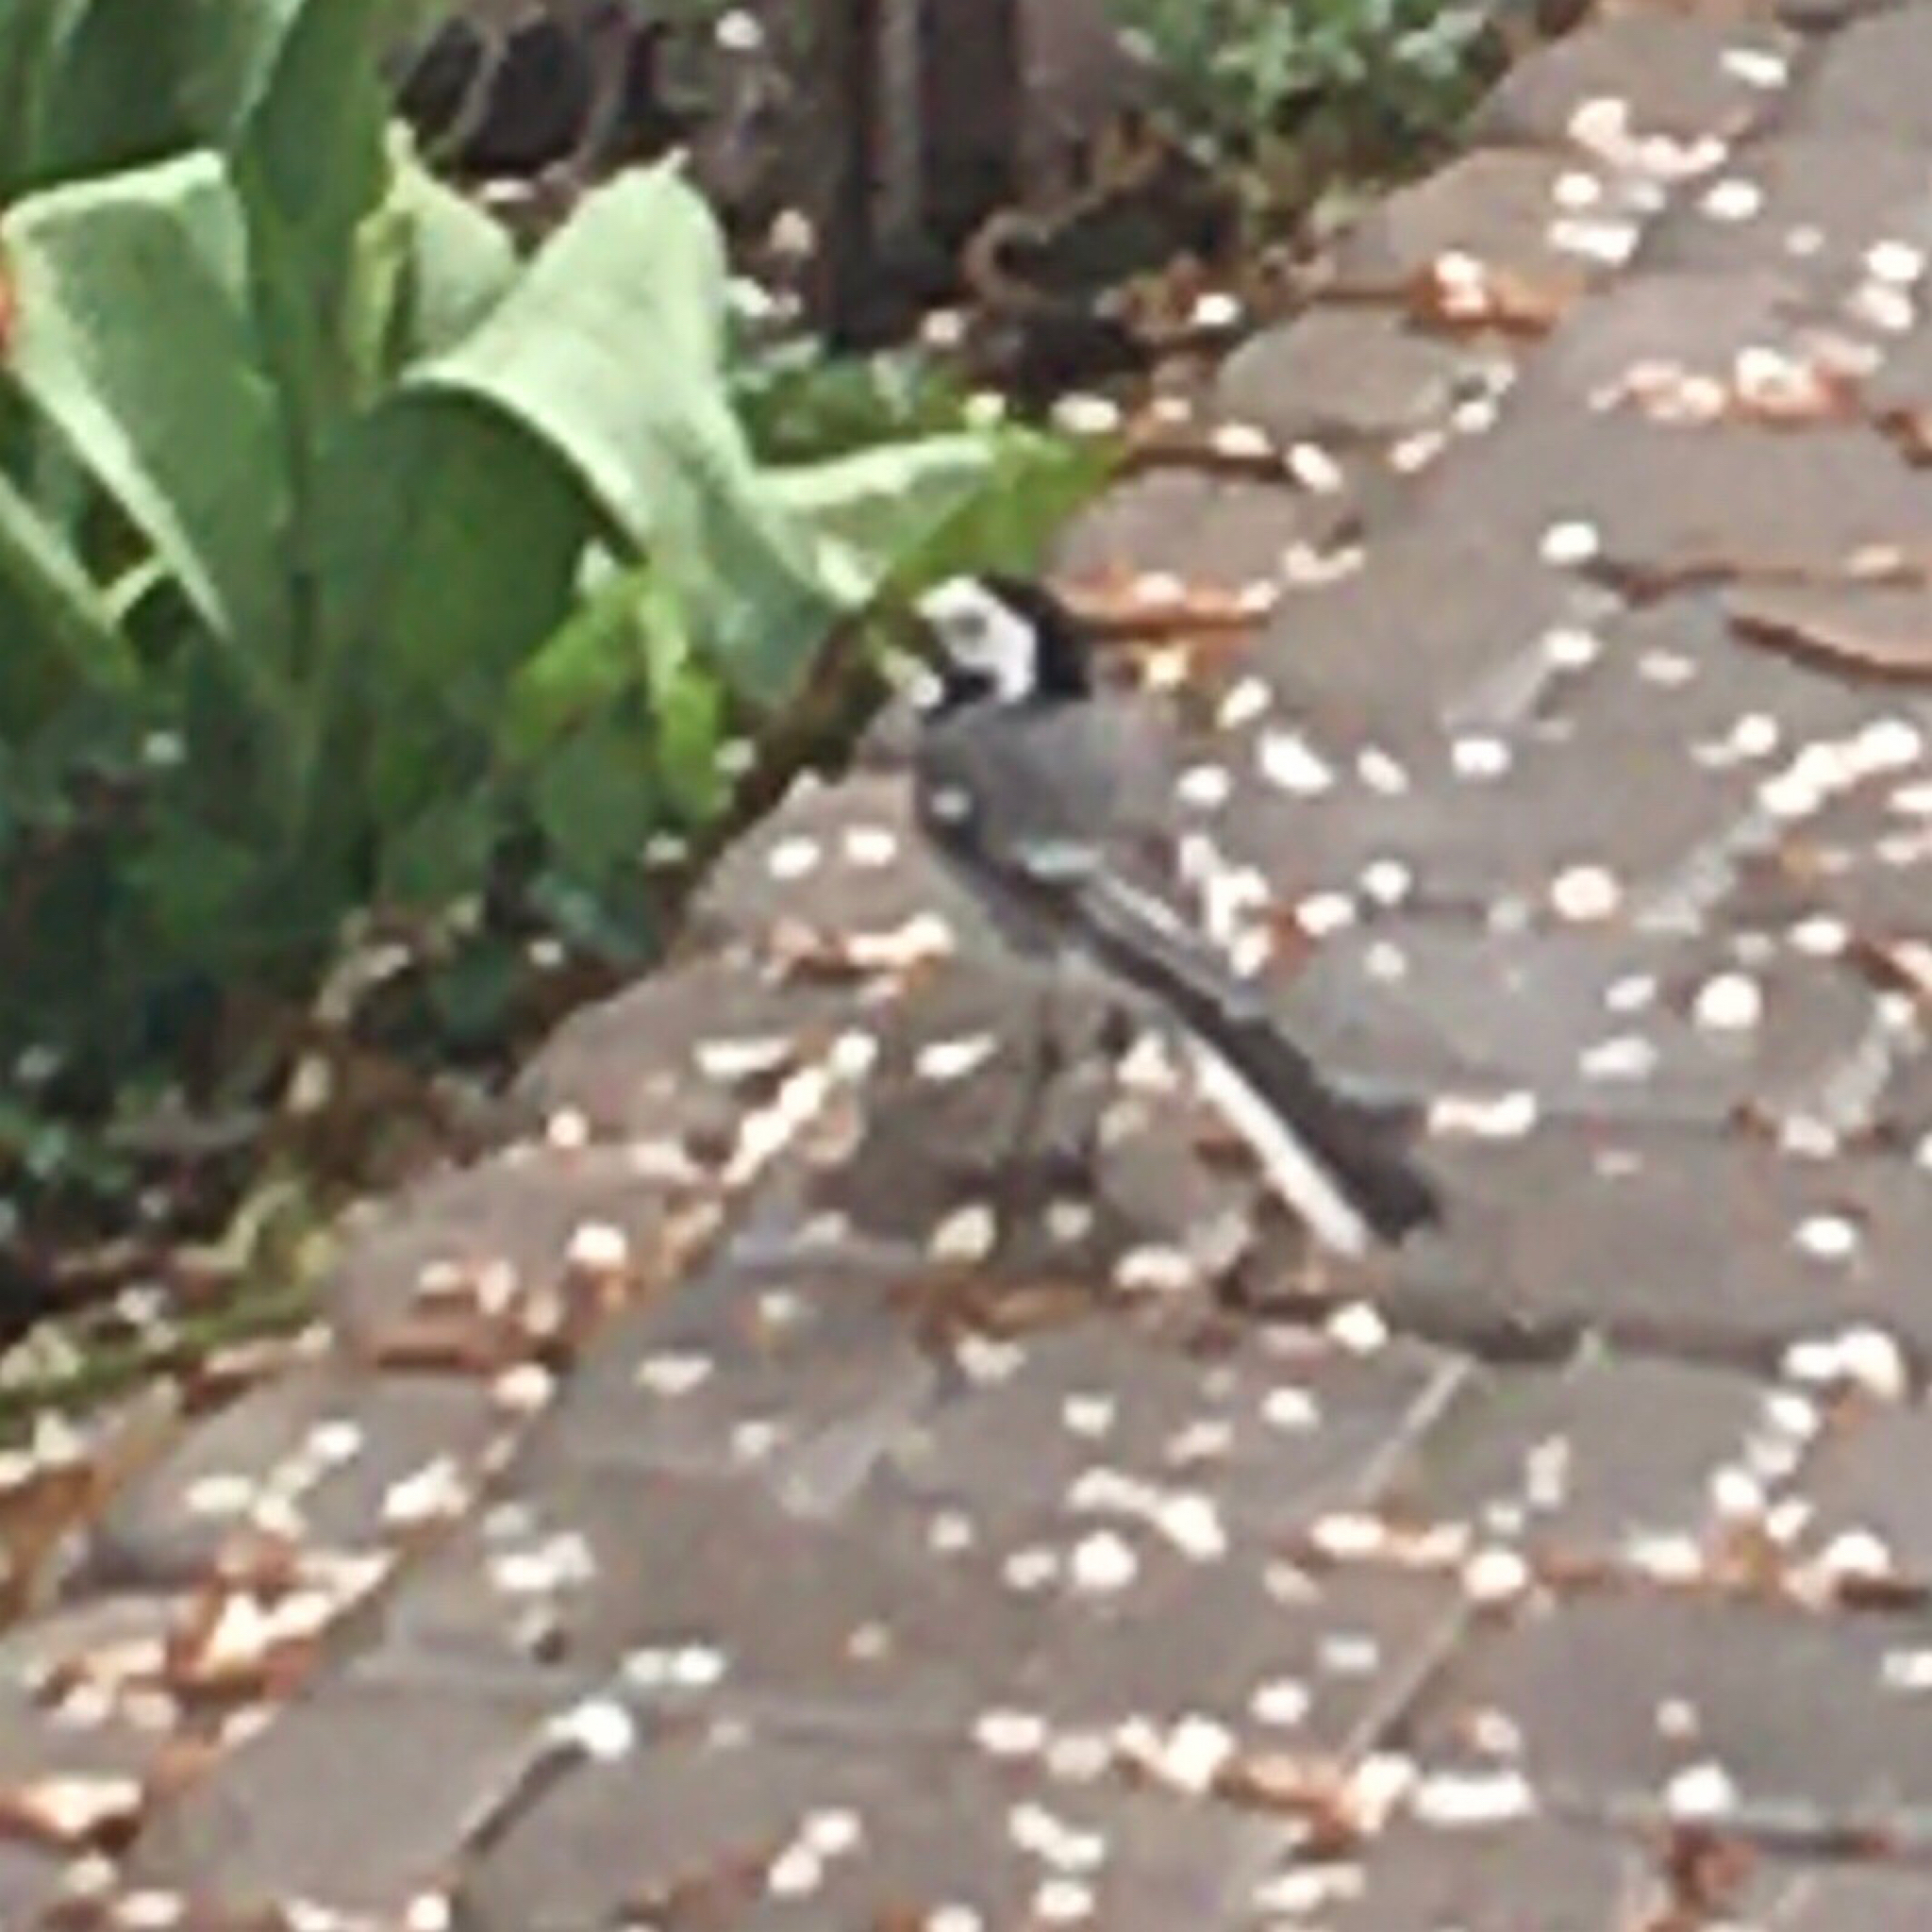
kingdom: Animalia
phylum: Chordata
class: Aves
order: Passeriformes
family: Motacillidae
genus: Motacilla
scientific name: Motacilla alba
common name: White wagtail
